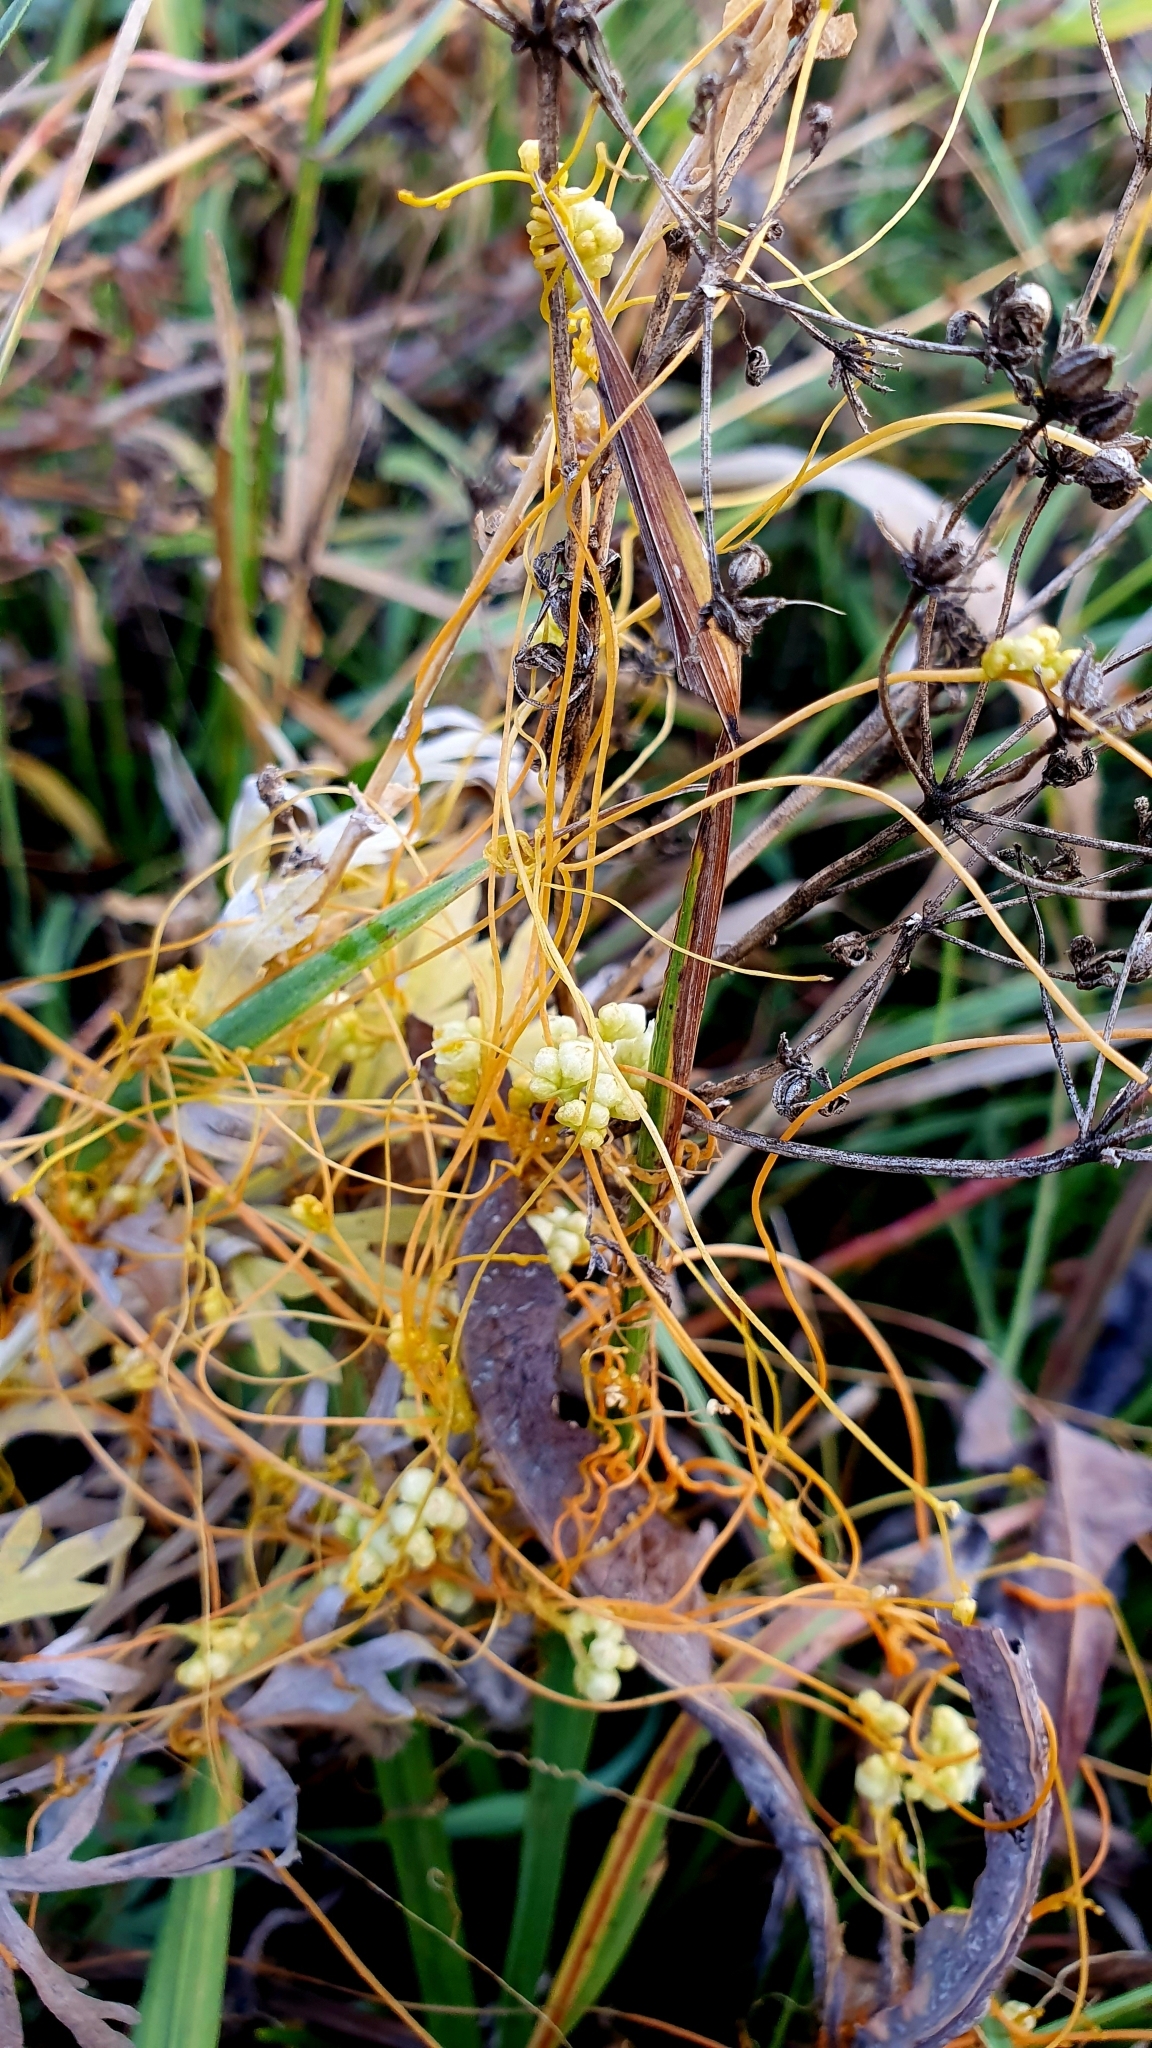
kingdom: Plantae
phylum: Tracheophyta
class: Magnoliopsida
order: Solanales
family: Convolvulaceae
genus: Cuscuta
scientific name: Cuscuta campestris
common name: Yellow dodder
